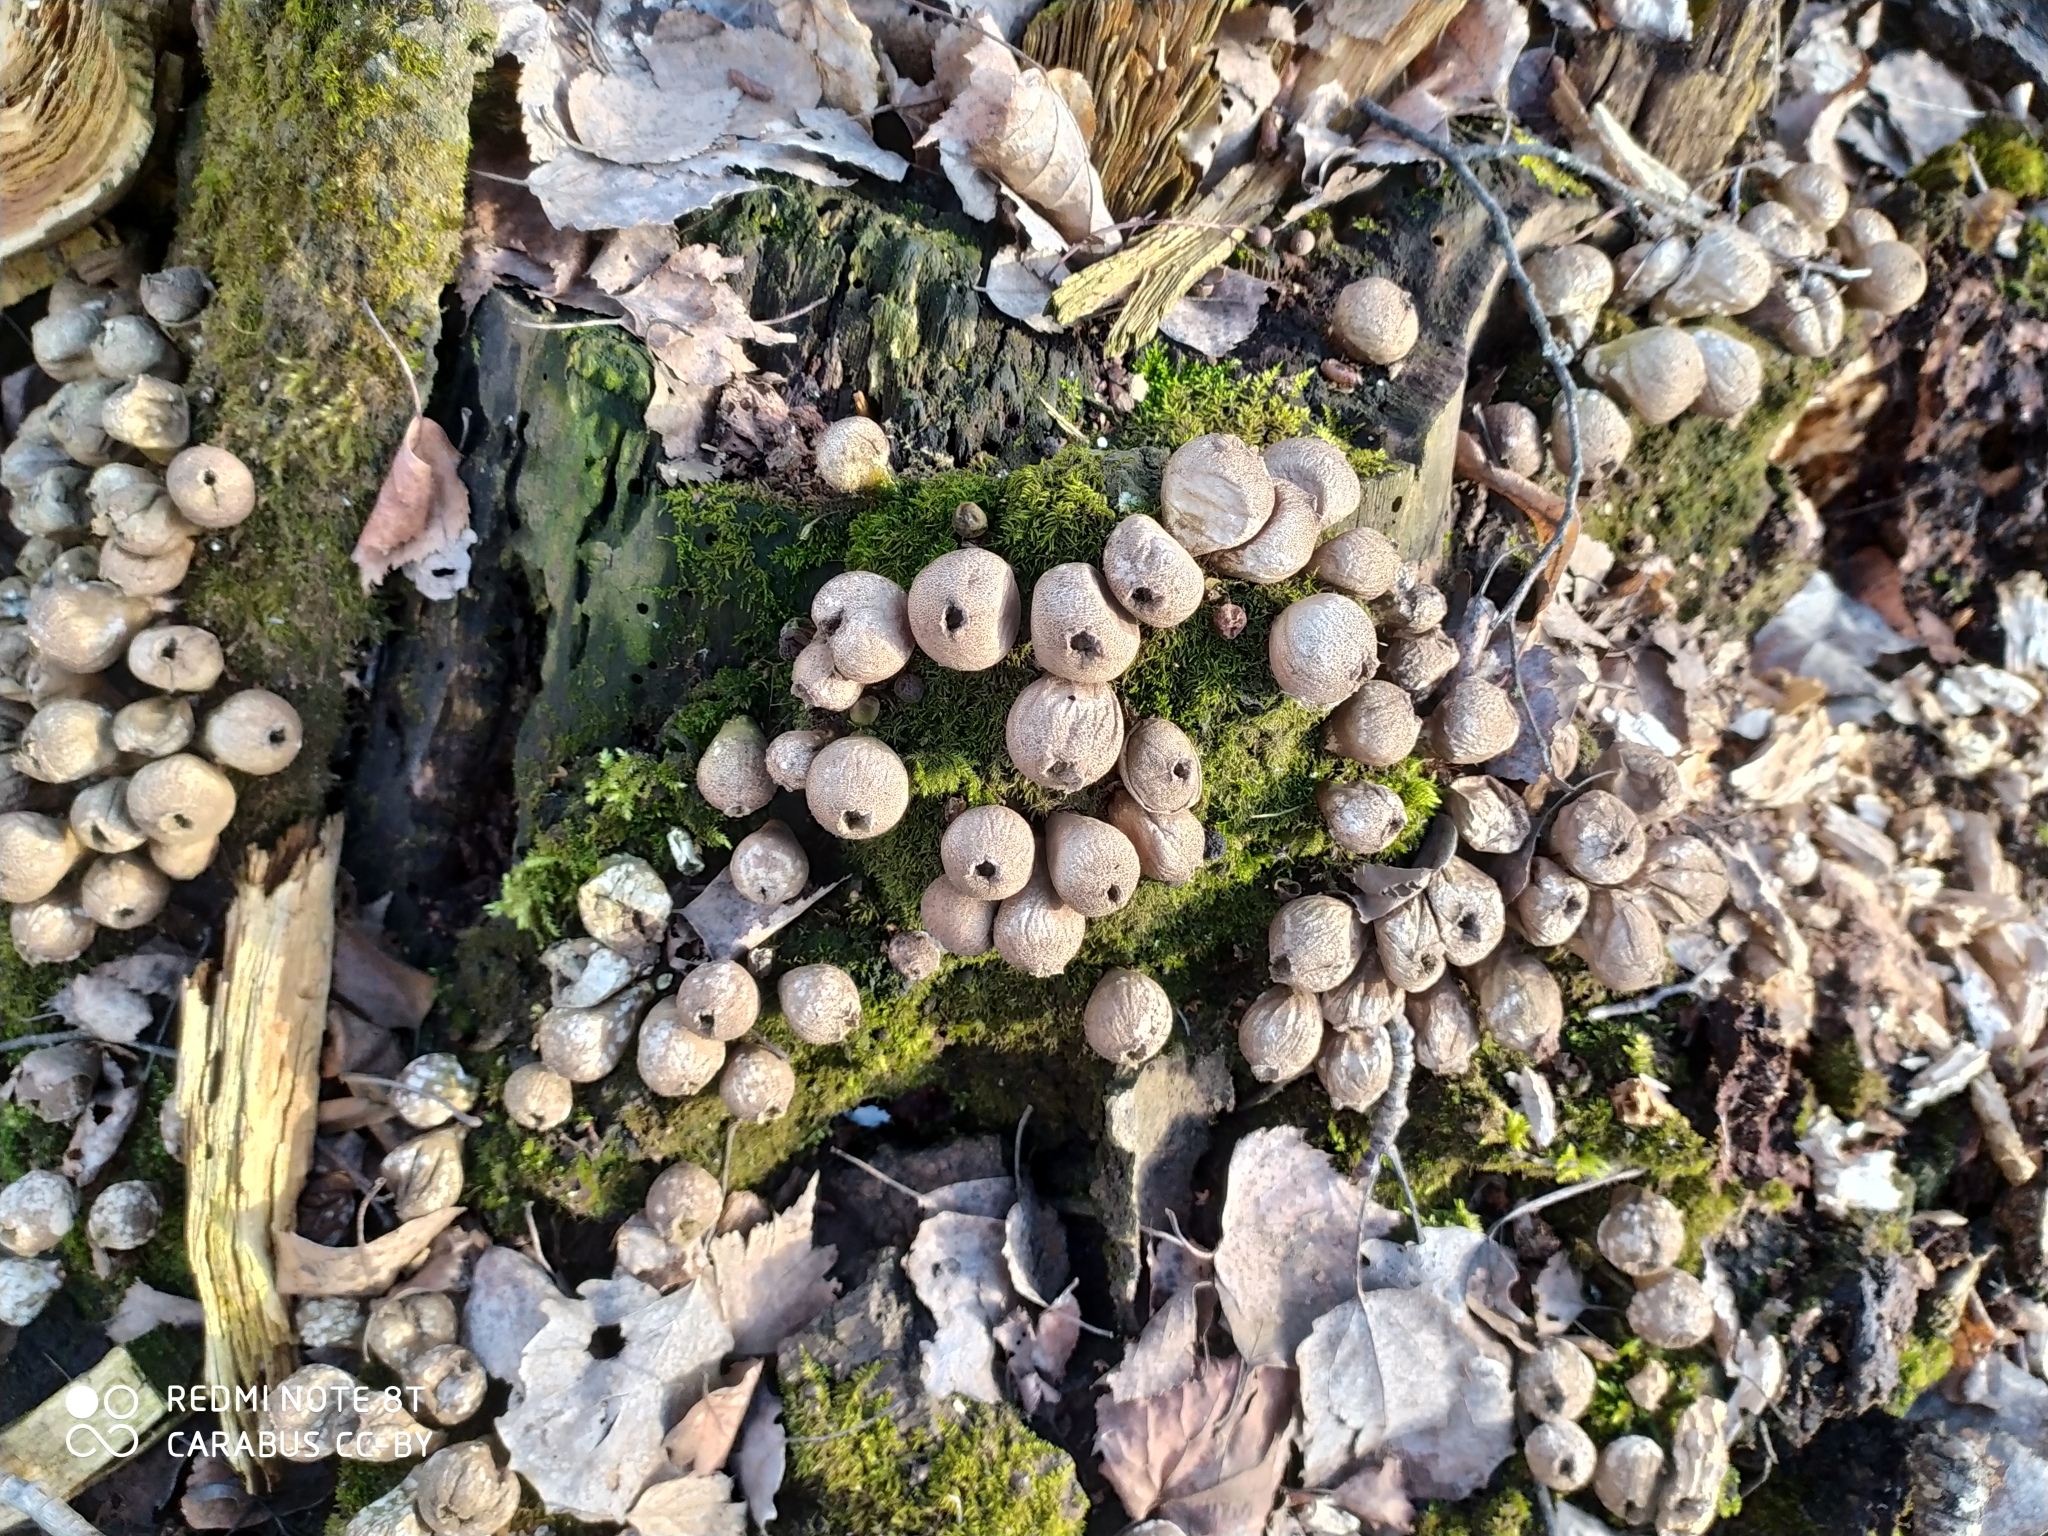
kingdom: Fungi
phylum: Basidiomycota
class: Agaricomycetes
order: Agaricales
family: Lycoperdaceae
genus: Apioperdon
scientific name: Apioperdon pyriforme
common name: Pear-shaped puffball
